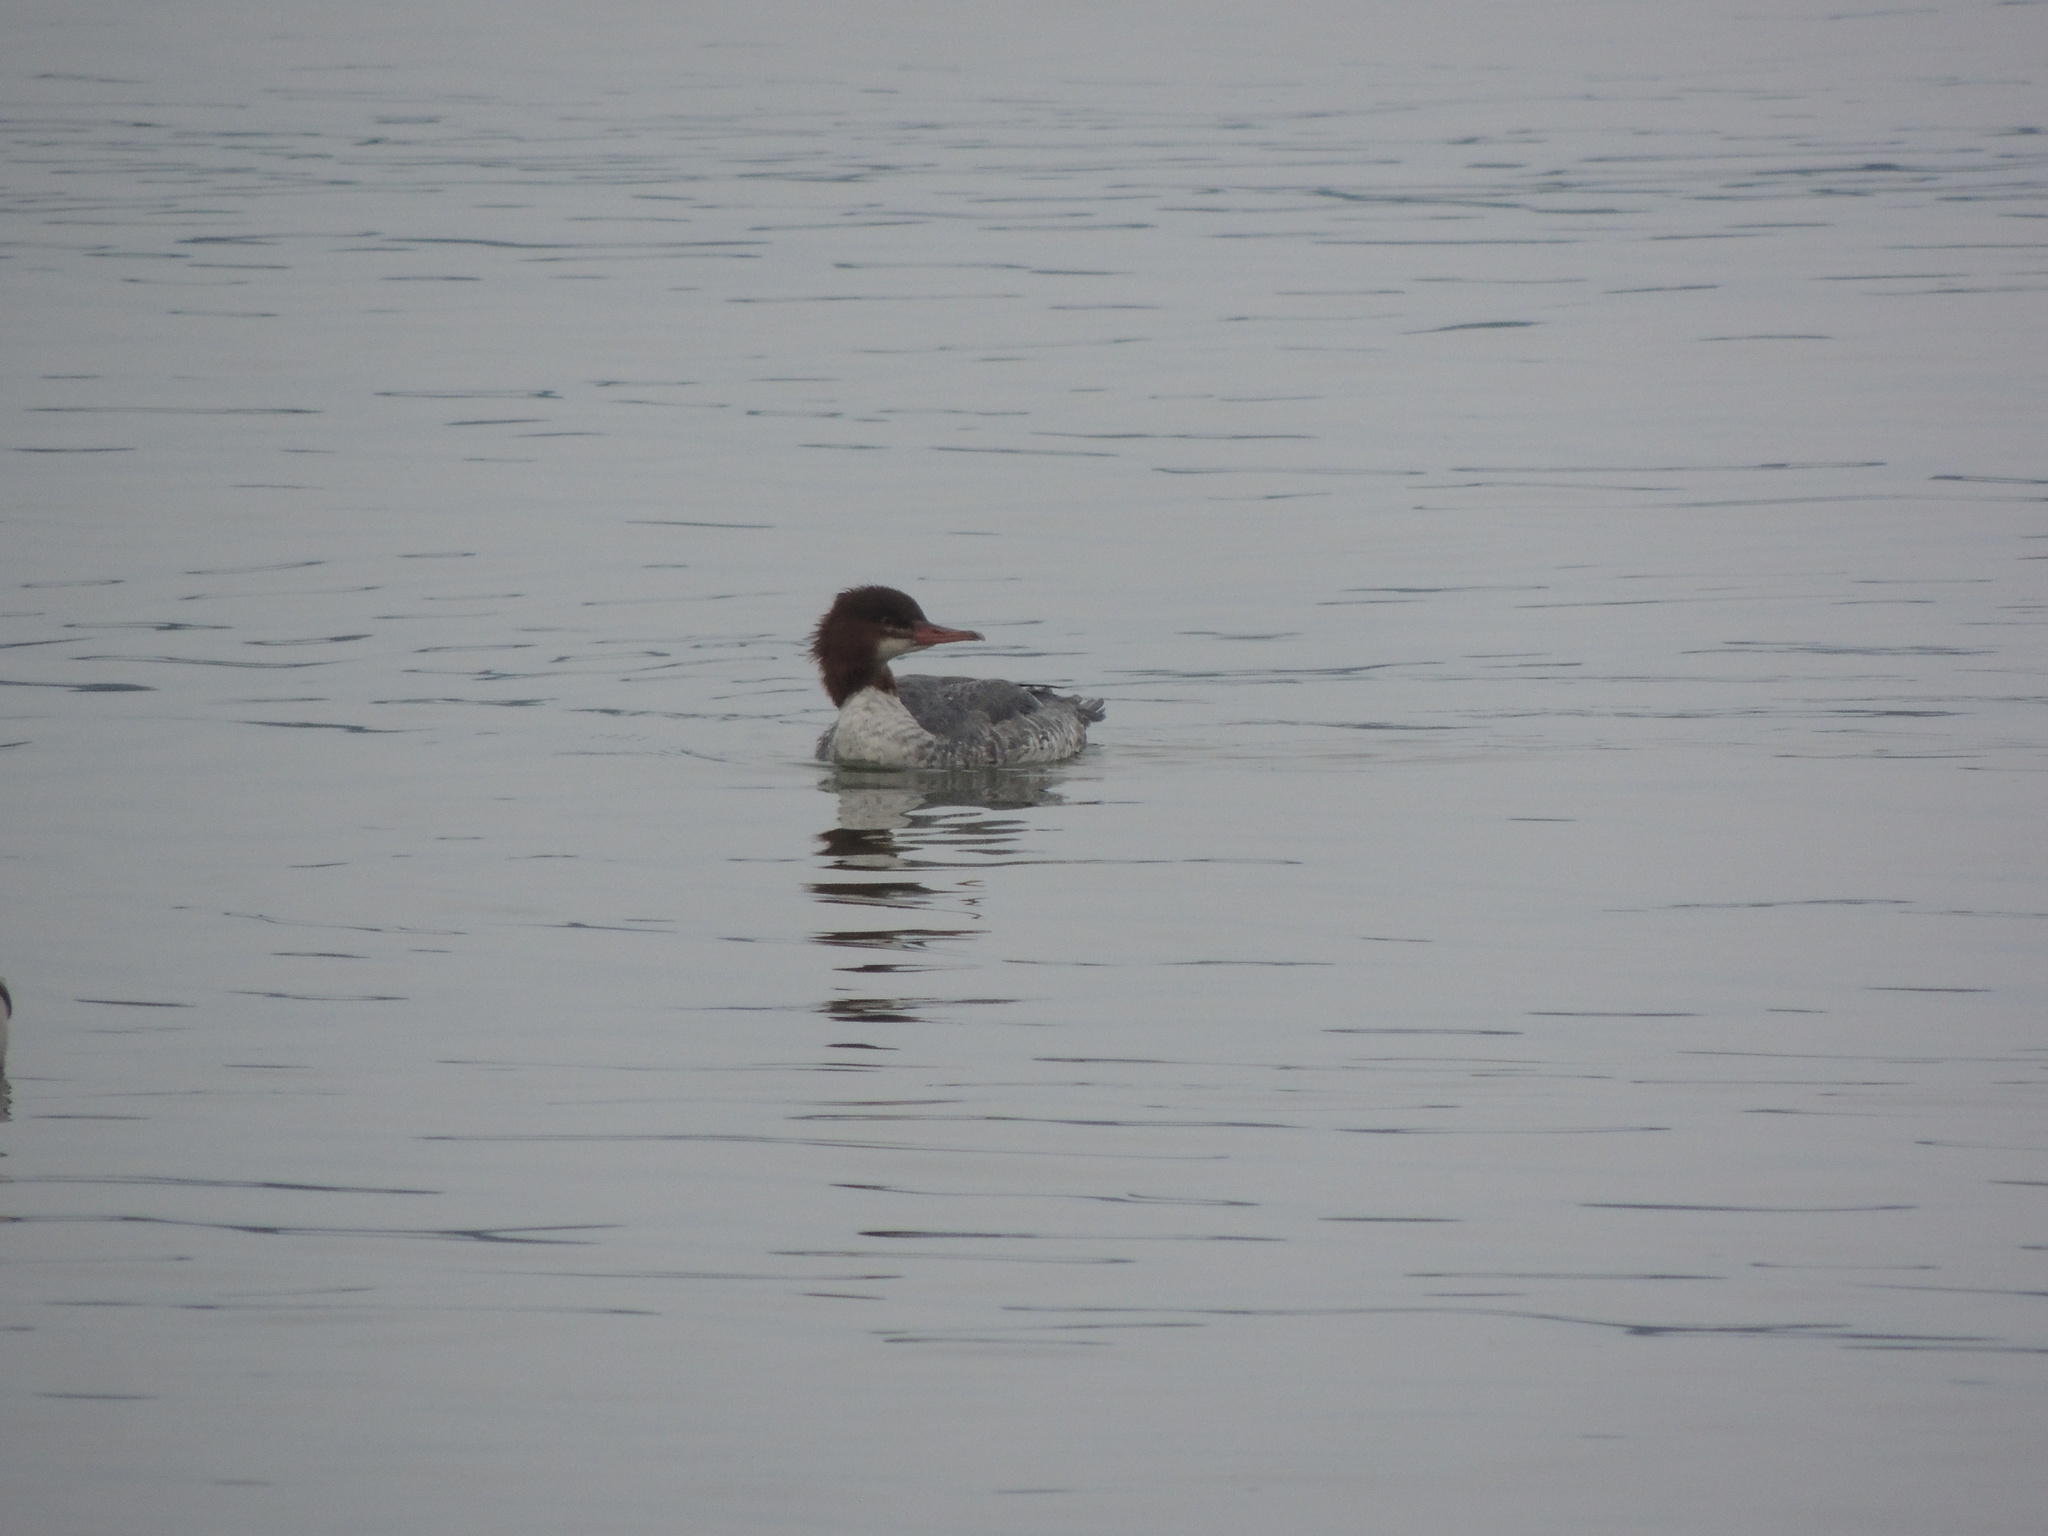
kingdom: Animalia
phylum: Chordata
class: Aves
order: Anseriformes
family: Anatidae
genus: Mergus
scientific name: Mergus merganser
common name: Common merganser
